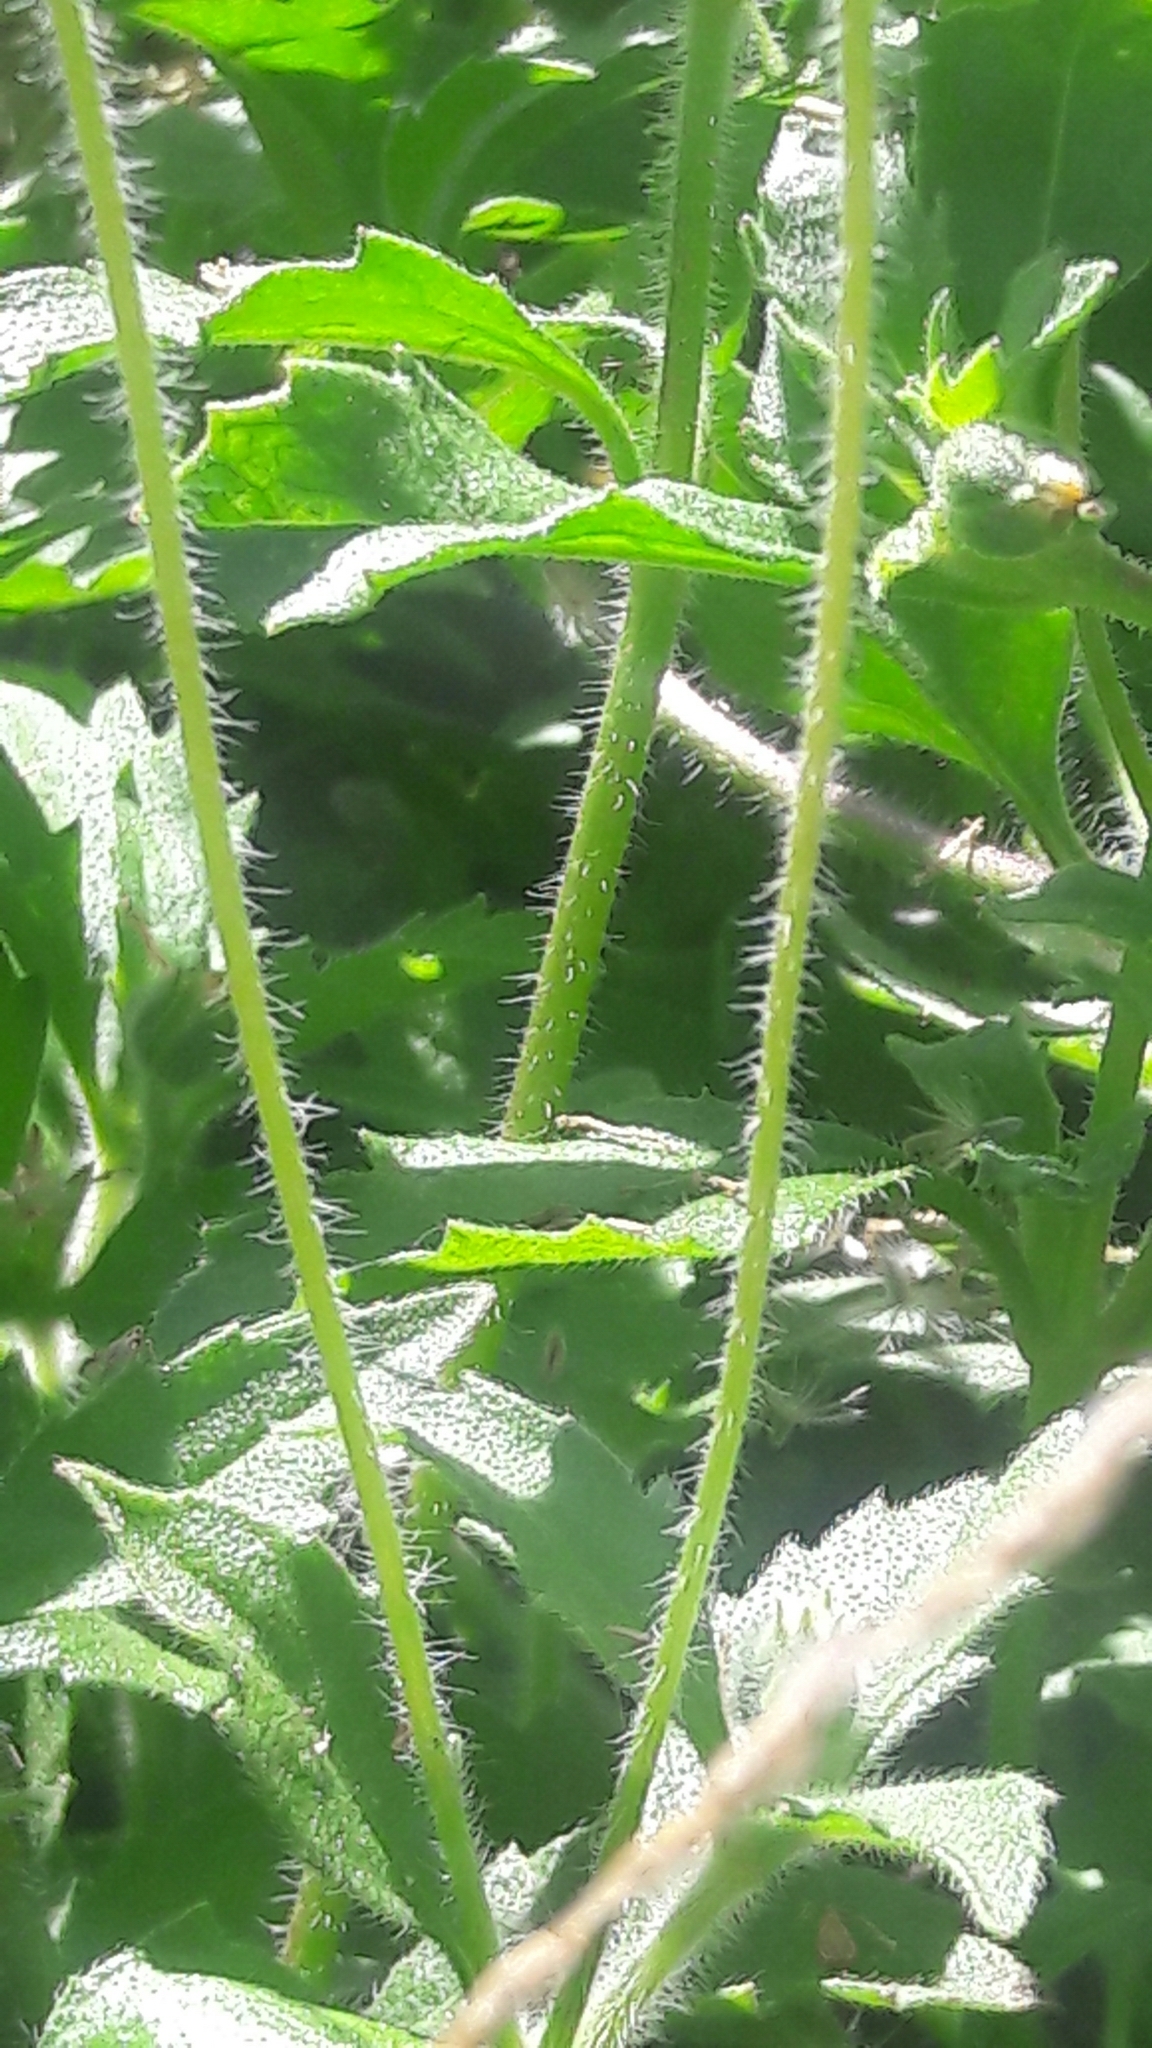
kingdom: Plantae
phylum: Tracheophyta
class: Magnoliopsida
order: Asterales
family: Asteraceae
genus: Tridax
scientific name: Tridax procumbens
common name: Coatbuttons
